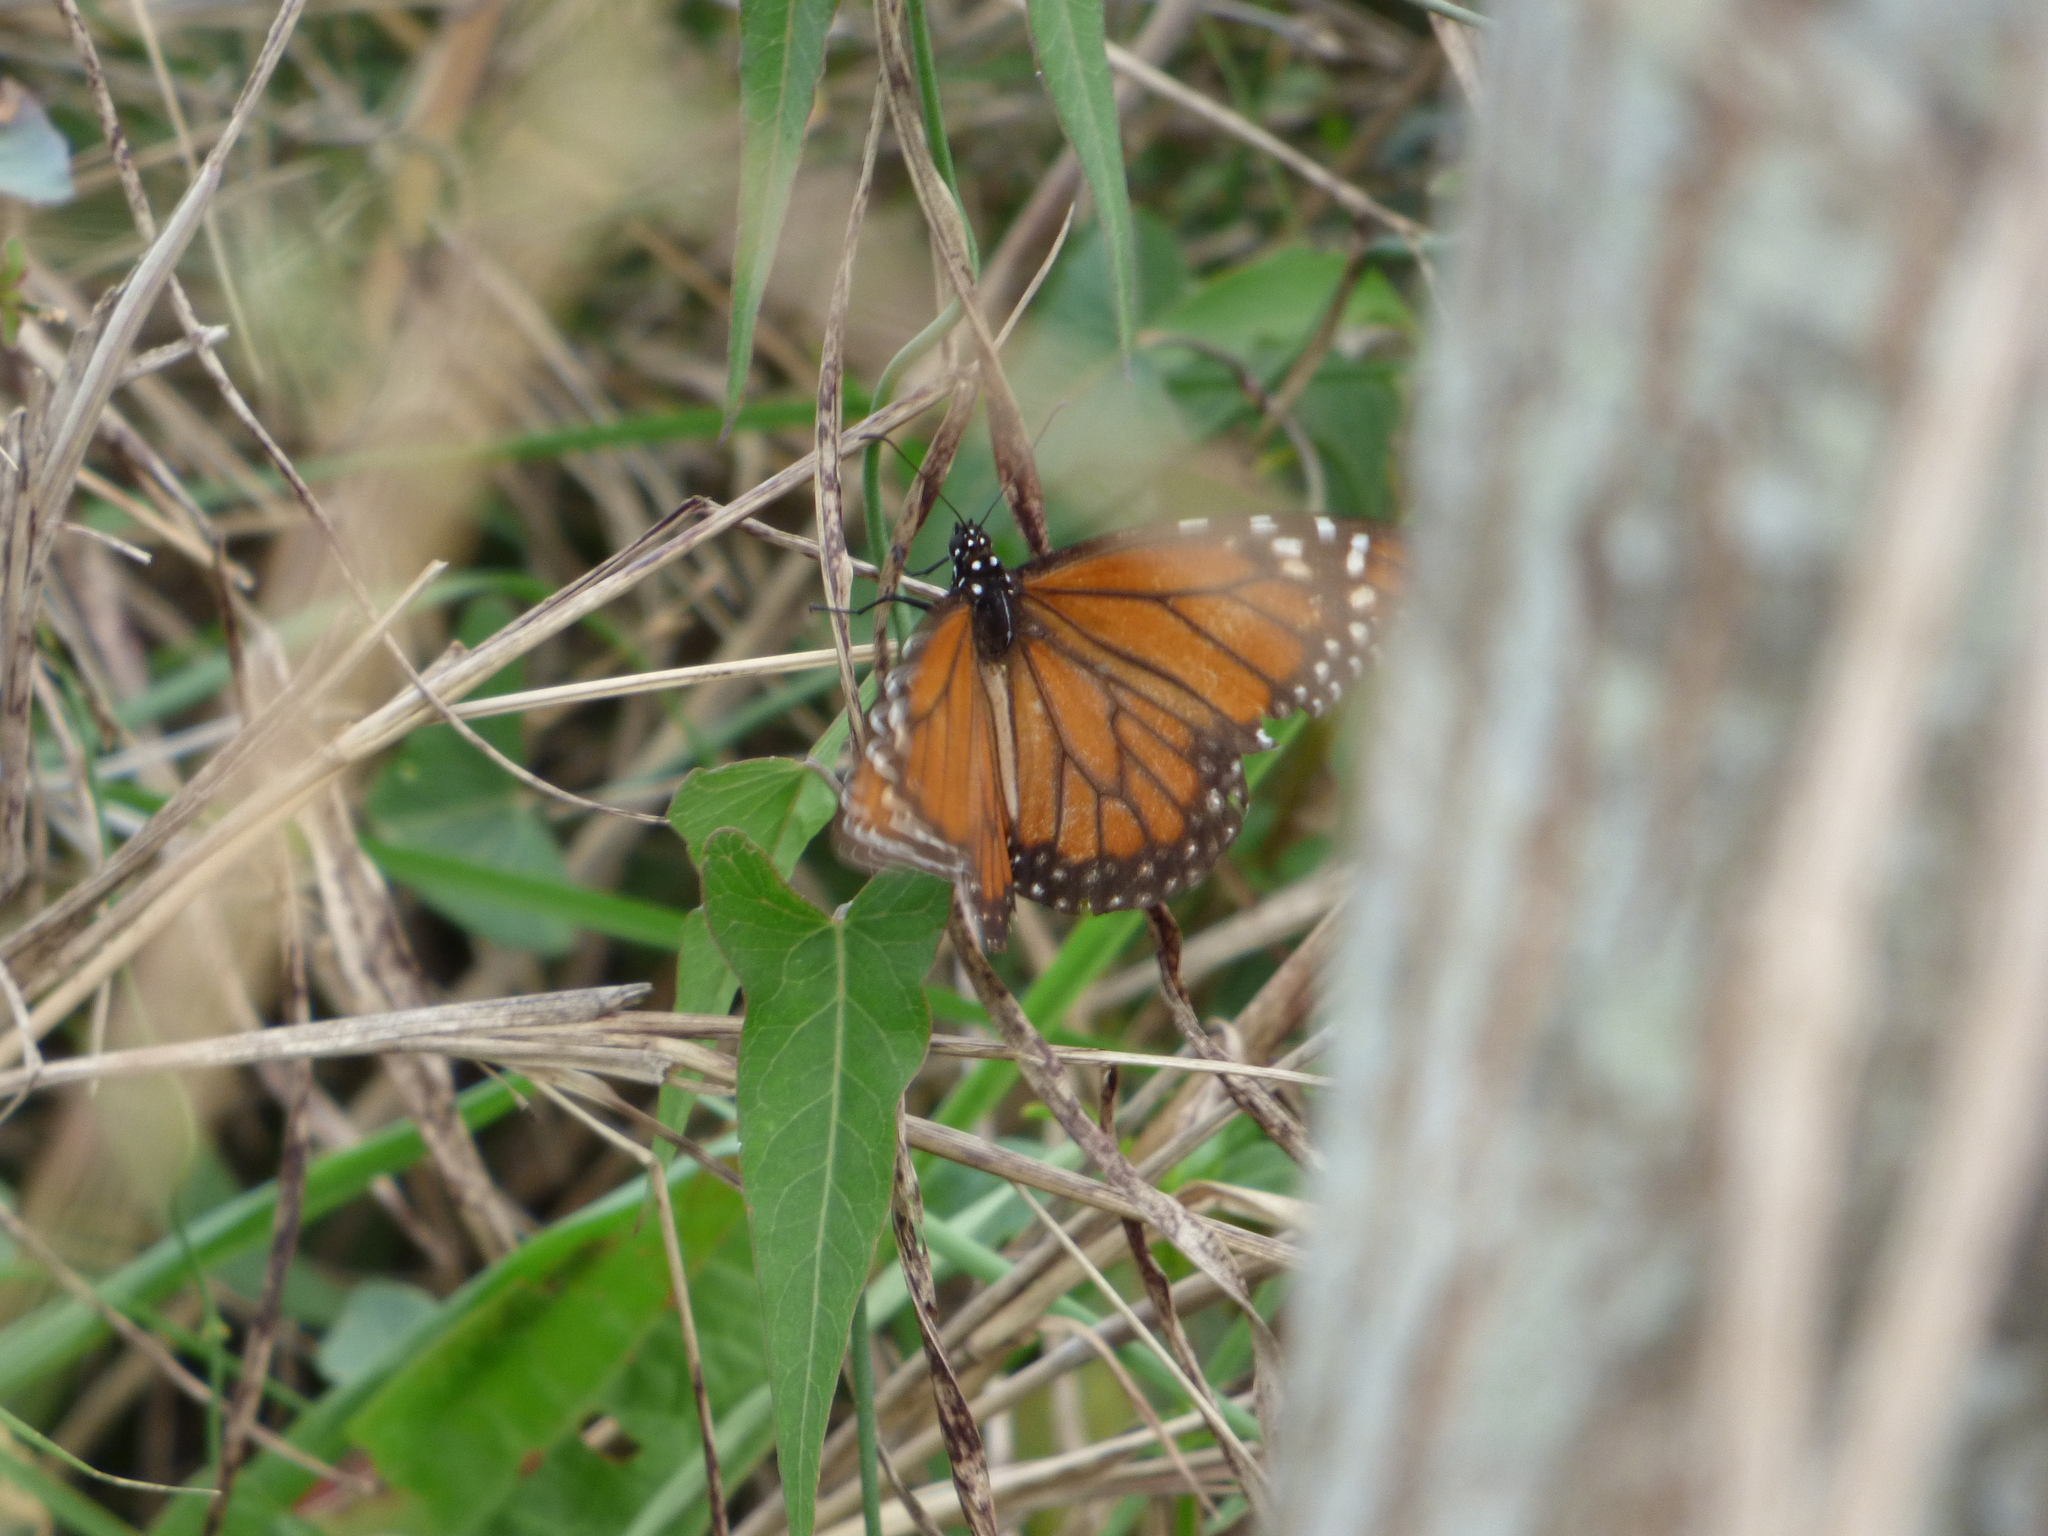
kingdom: Animalia
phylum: Arthropoda
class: Insecta
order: Lepidoptera
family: Nymphalidae
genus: Danaus
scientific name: Danaus erippus
